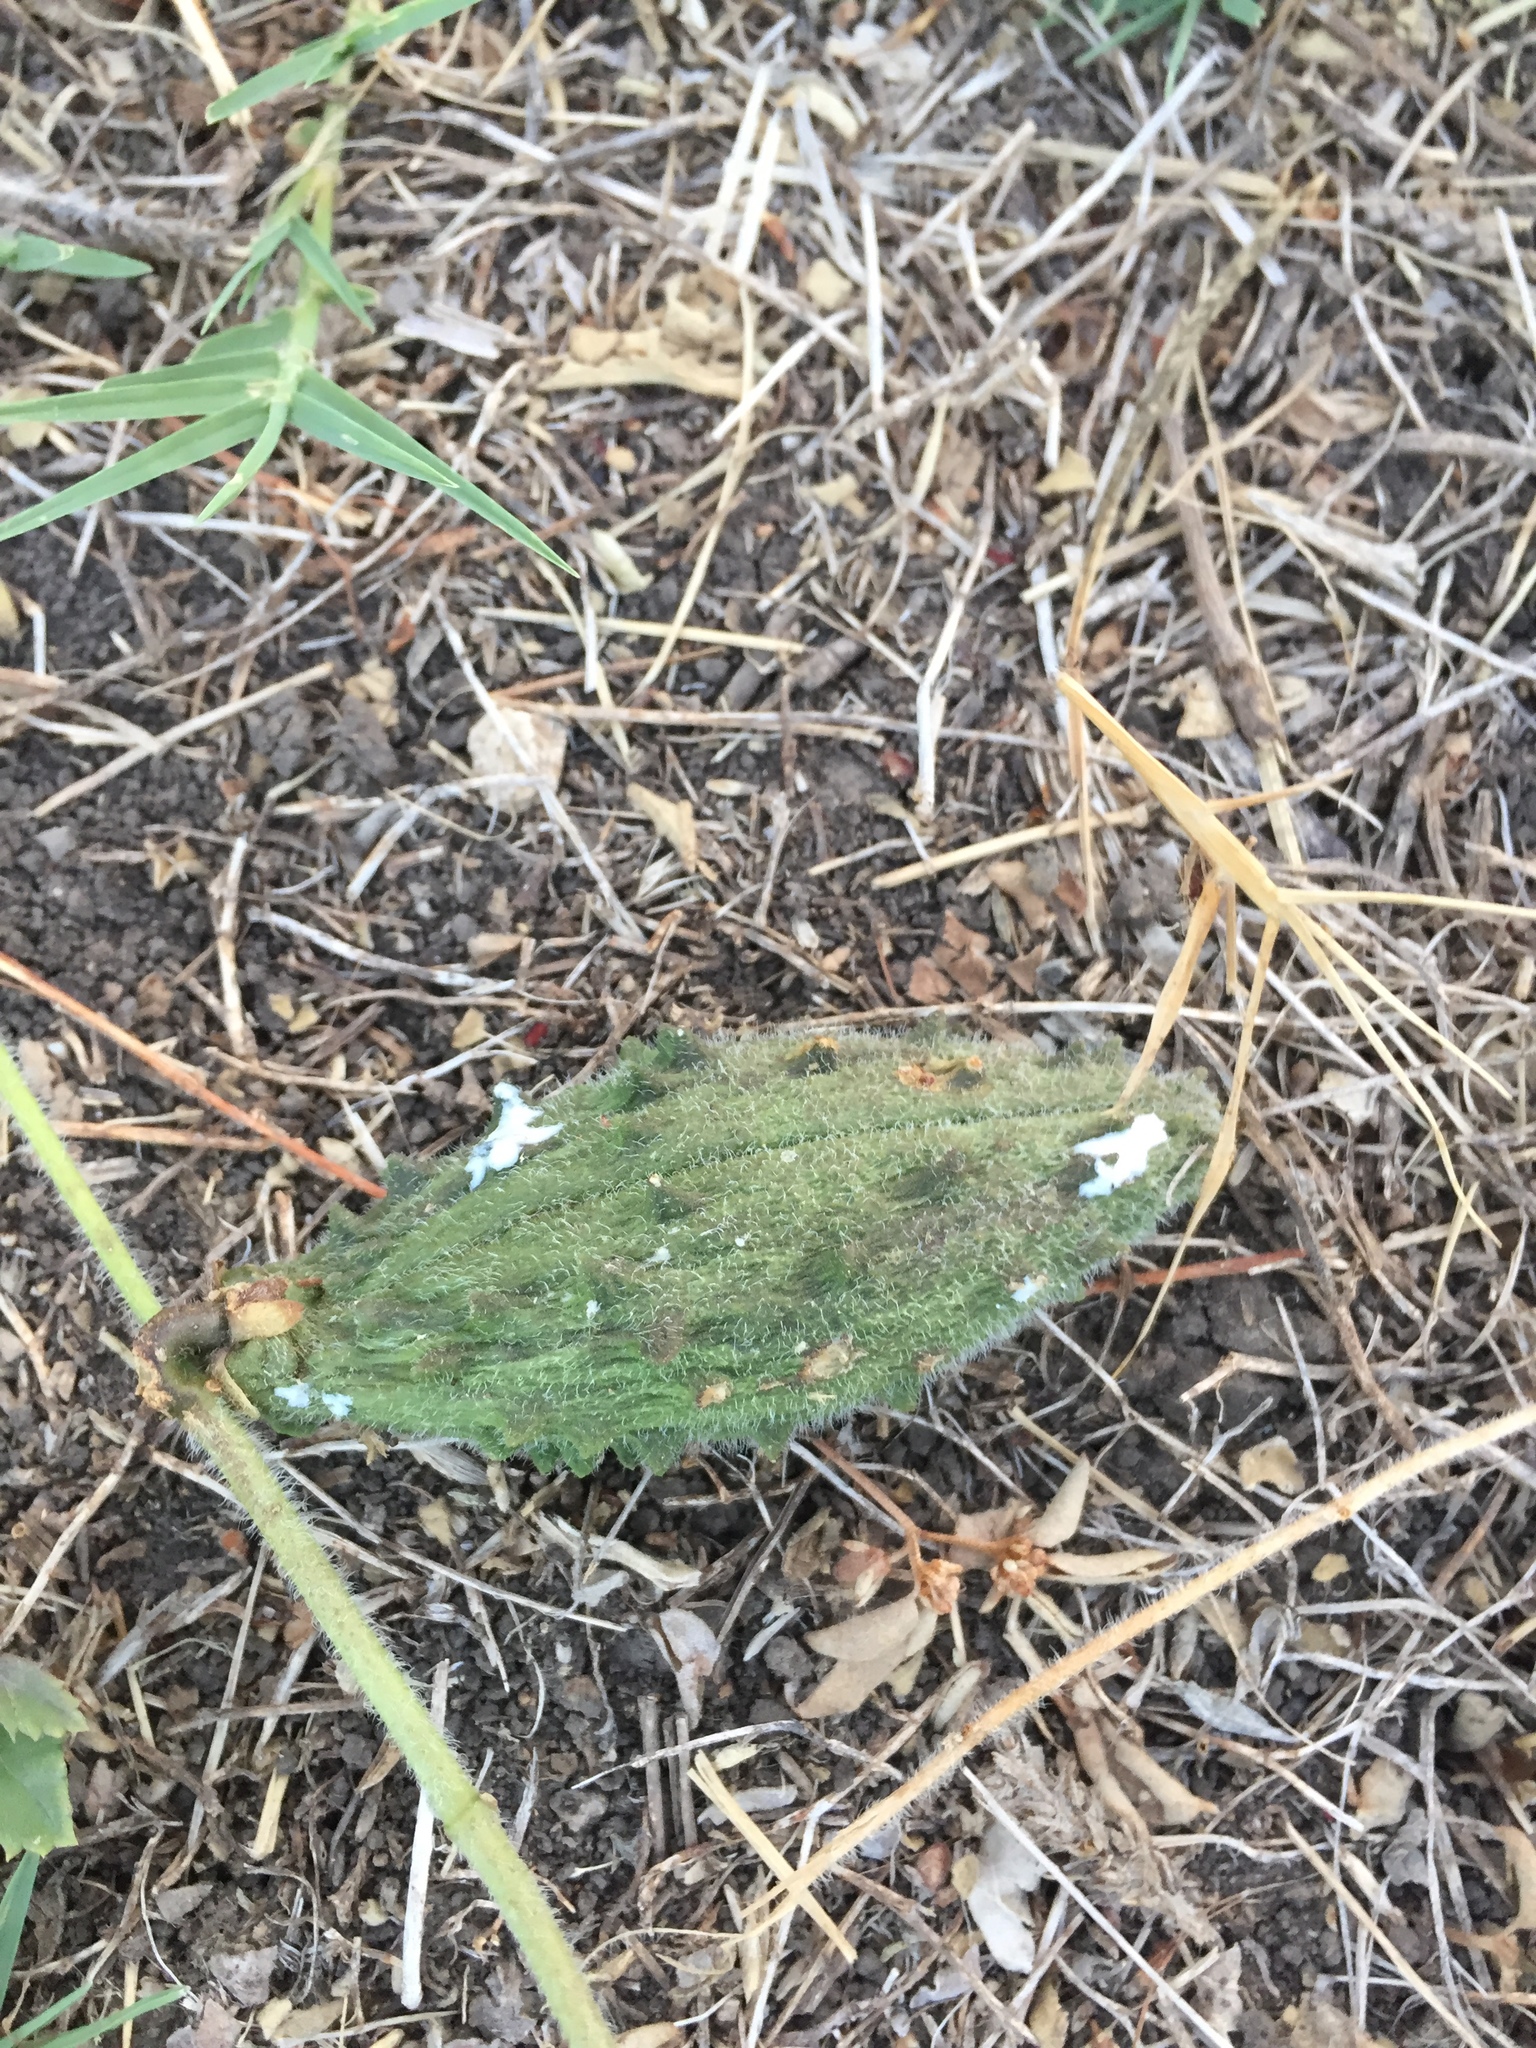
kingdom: Plantae
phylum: Tracheophyta
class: Magnoliopsida
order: Gentianales
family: Apocynaceae
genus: Chthamalia
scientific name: Chthamalia biflora
